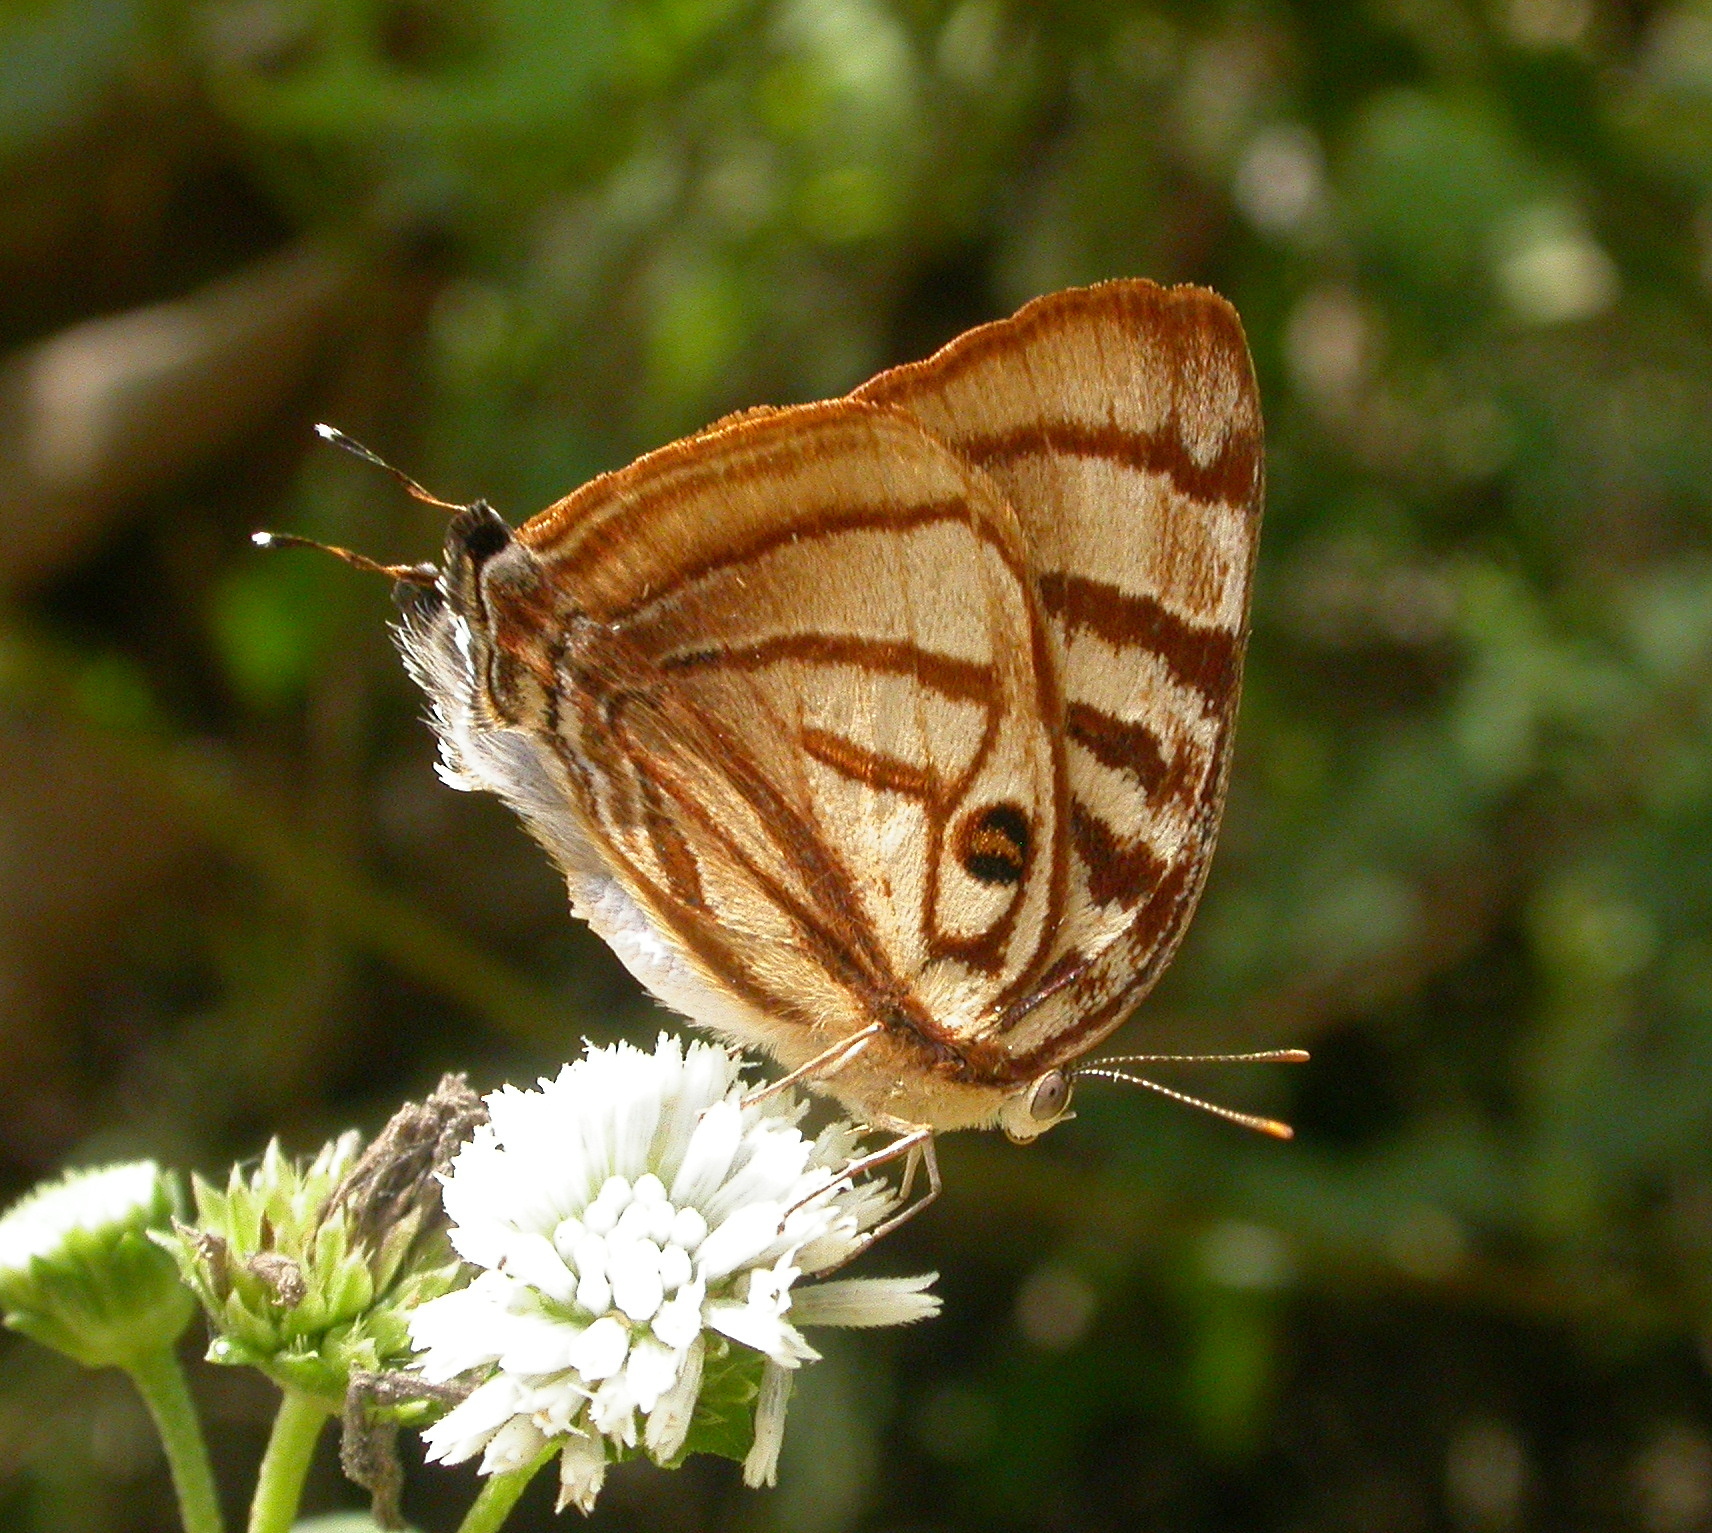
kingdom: Animalia
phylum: Arthropoda
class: Insecta
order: Lepidoptera
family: Lycaenidae
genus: Rekoa
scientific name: Rekoa meton
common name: Meton hairstreak
